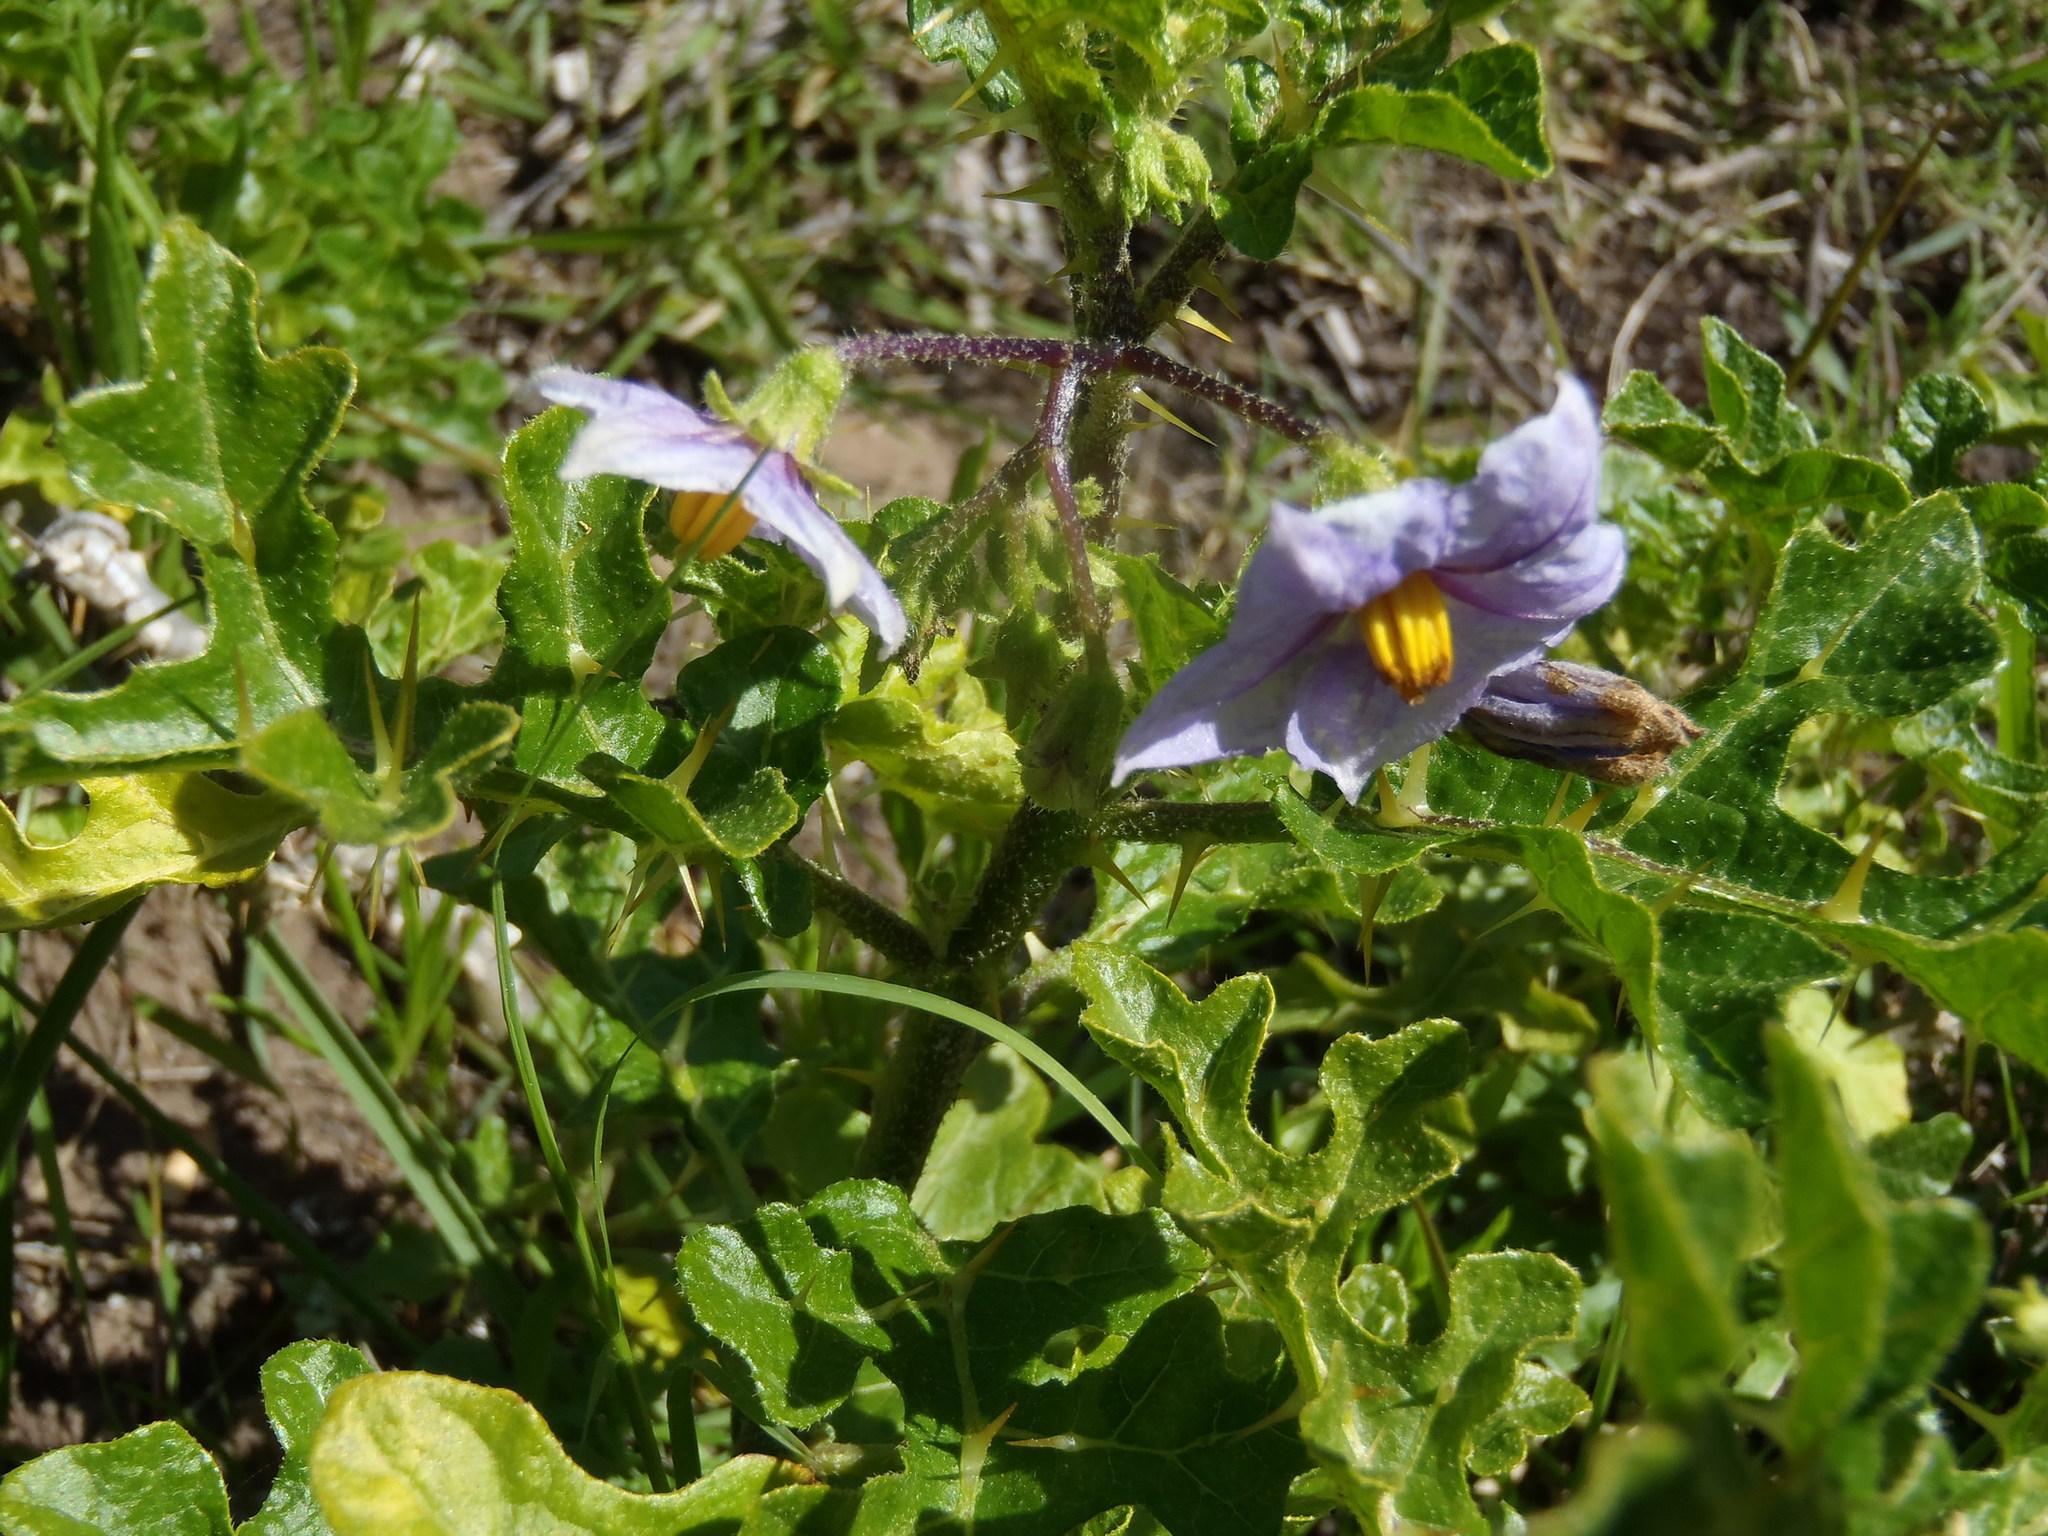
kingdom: Plantae
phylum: Tracheophyta
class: Magnoliopsida
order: Solanales
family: Solanaceae
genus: Solanum
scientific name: Solanum linnaeanum
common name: Nightshade
